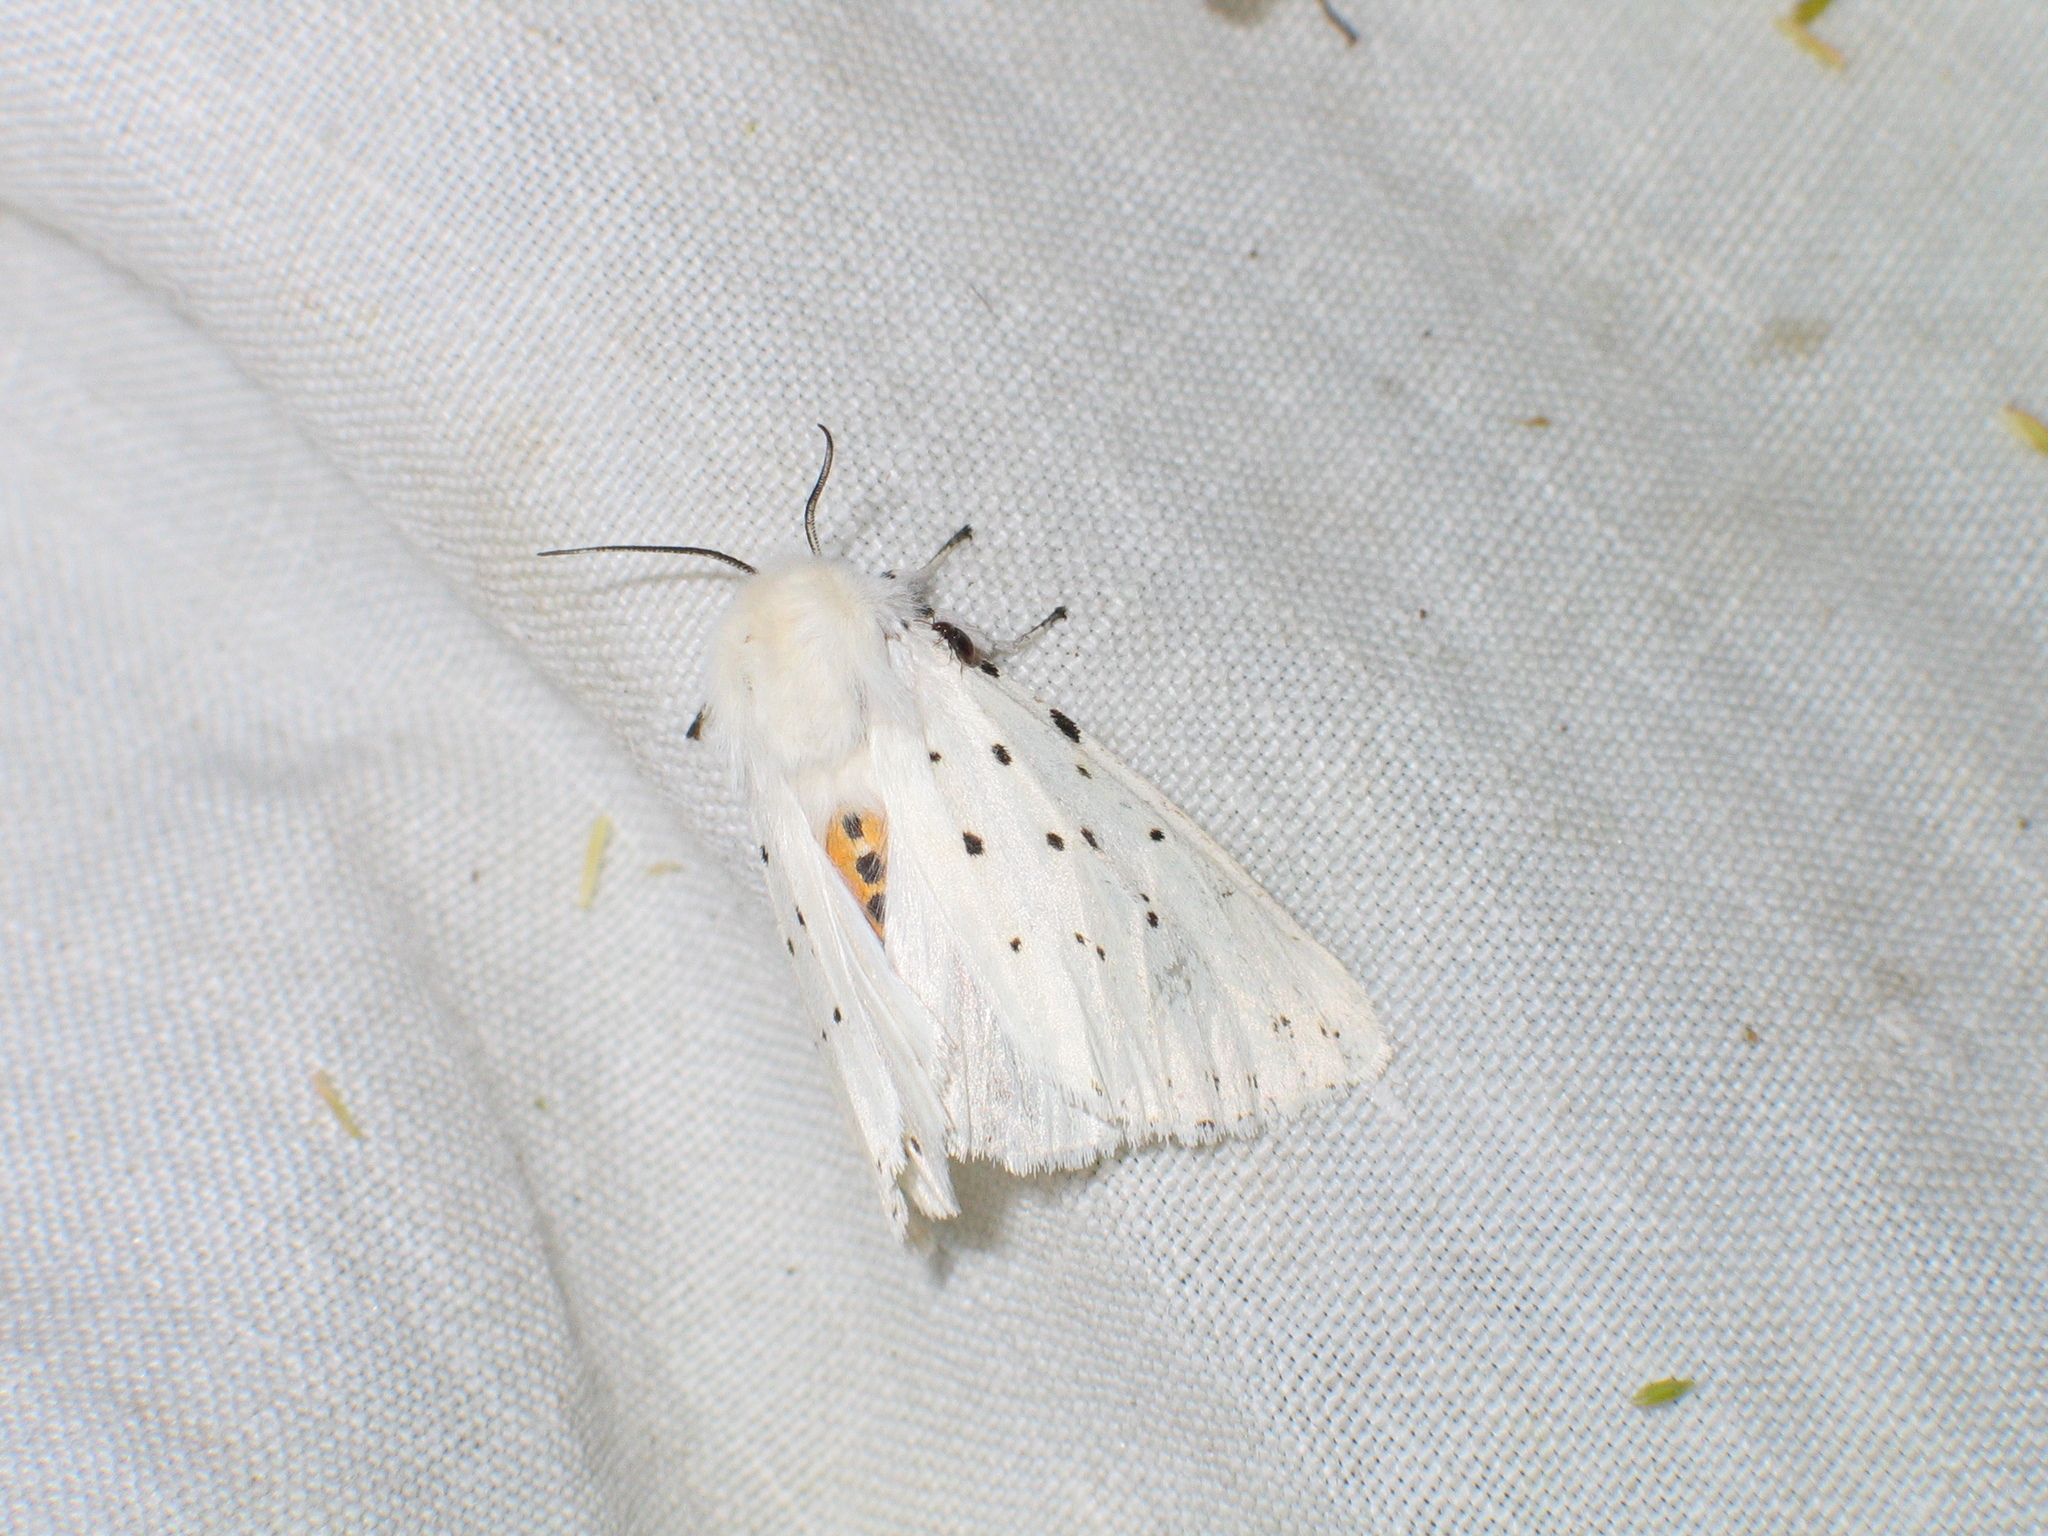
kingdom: Animalia
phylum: Arthropoda
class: Insecta
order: Lepidoptera
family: Erebidae
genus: Spilosoma
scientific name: Spilosoma lubricipeda
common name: White ermine
